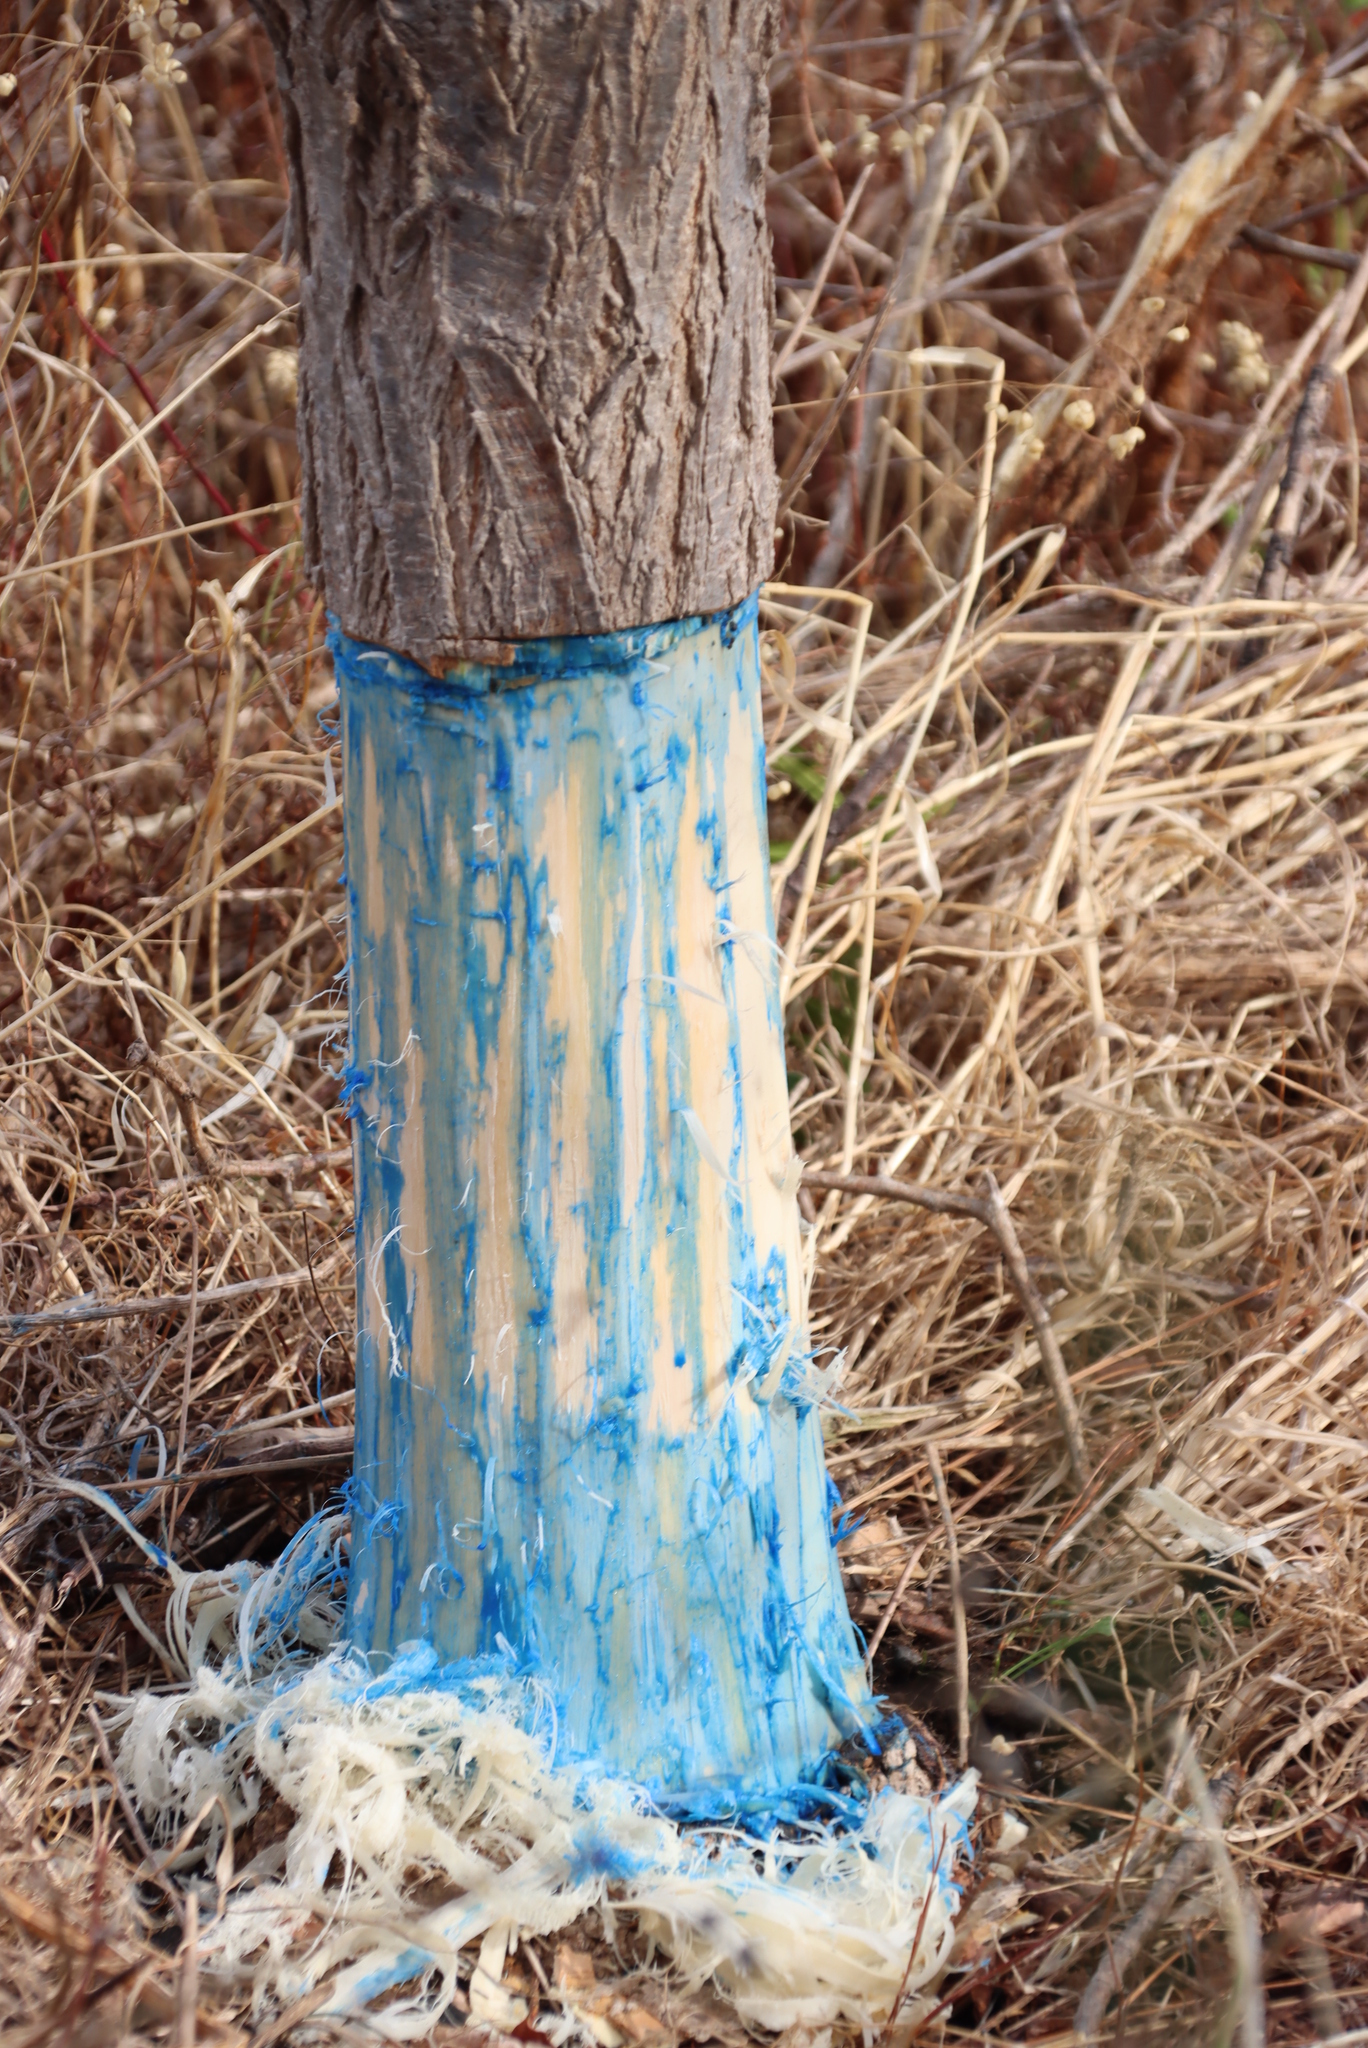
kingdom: Plantae
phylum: Tracheophyta
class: Magnoliopsida
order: Fabales
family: Fabaceae
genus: Robinia
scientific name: Robinia pseudoacacia
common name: Black locust
